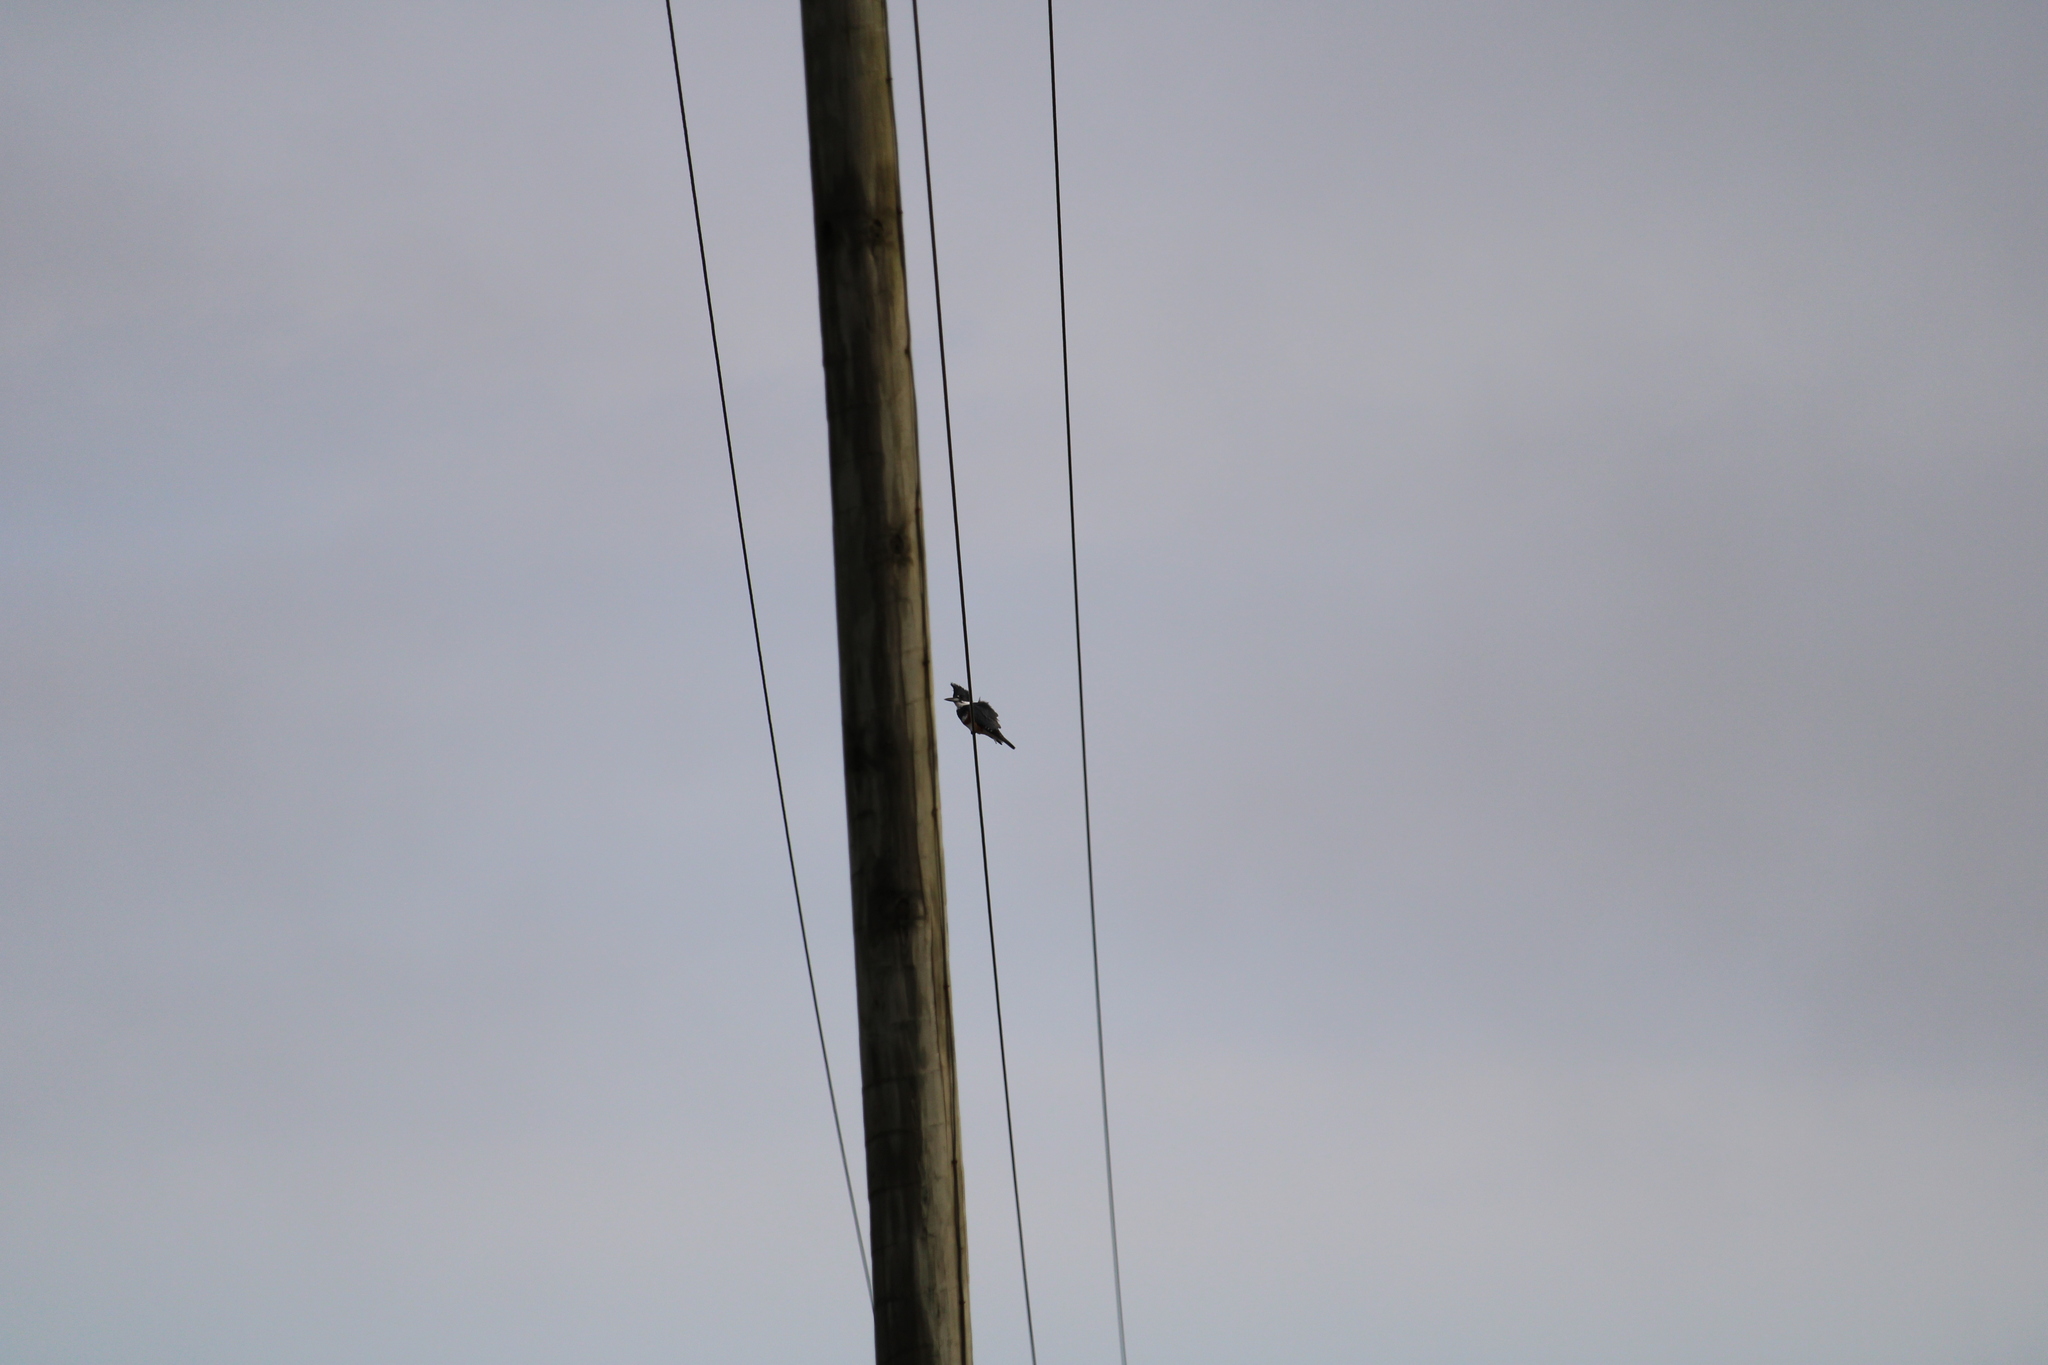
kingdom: Animalia
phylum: Chordata
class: Aves
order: Coraciiformes
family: Alcedinidae
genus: Megaceryle
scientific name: Megaceryle alcyon
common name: Belted kingfisher
